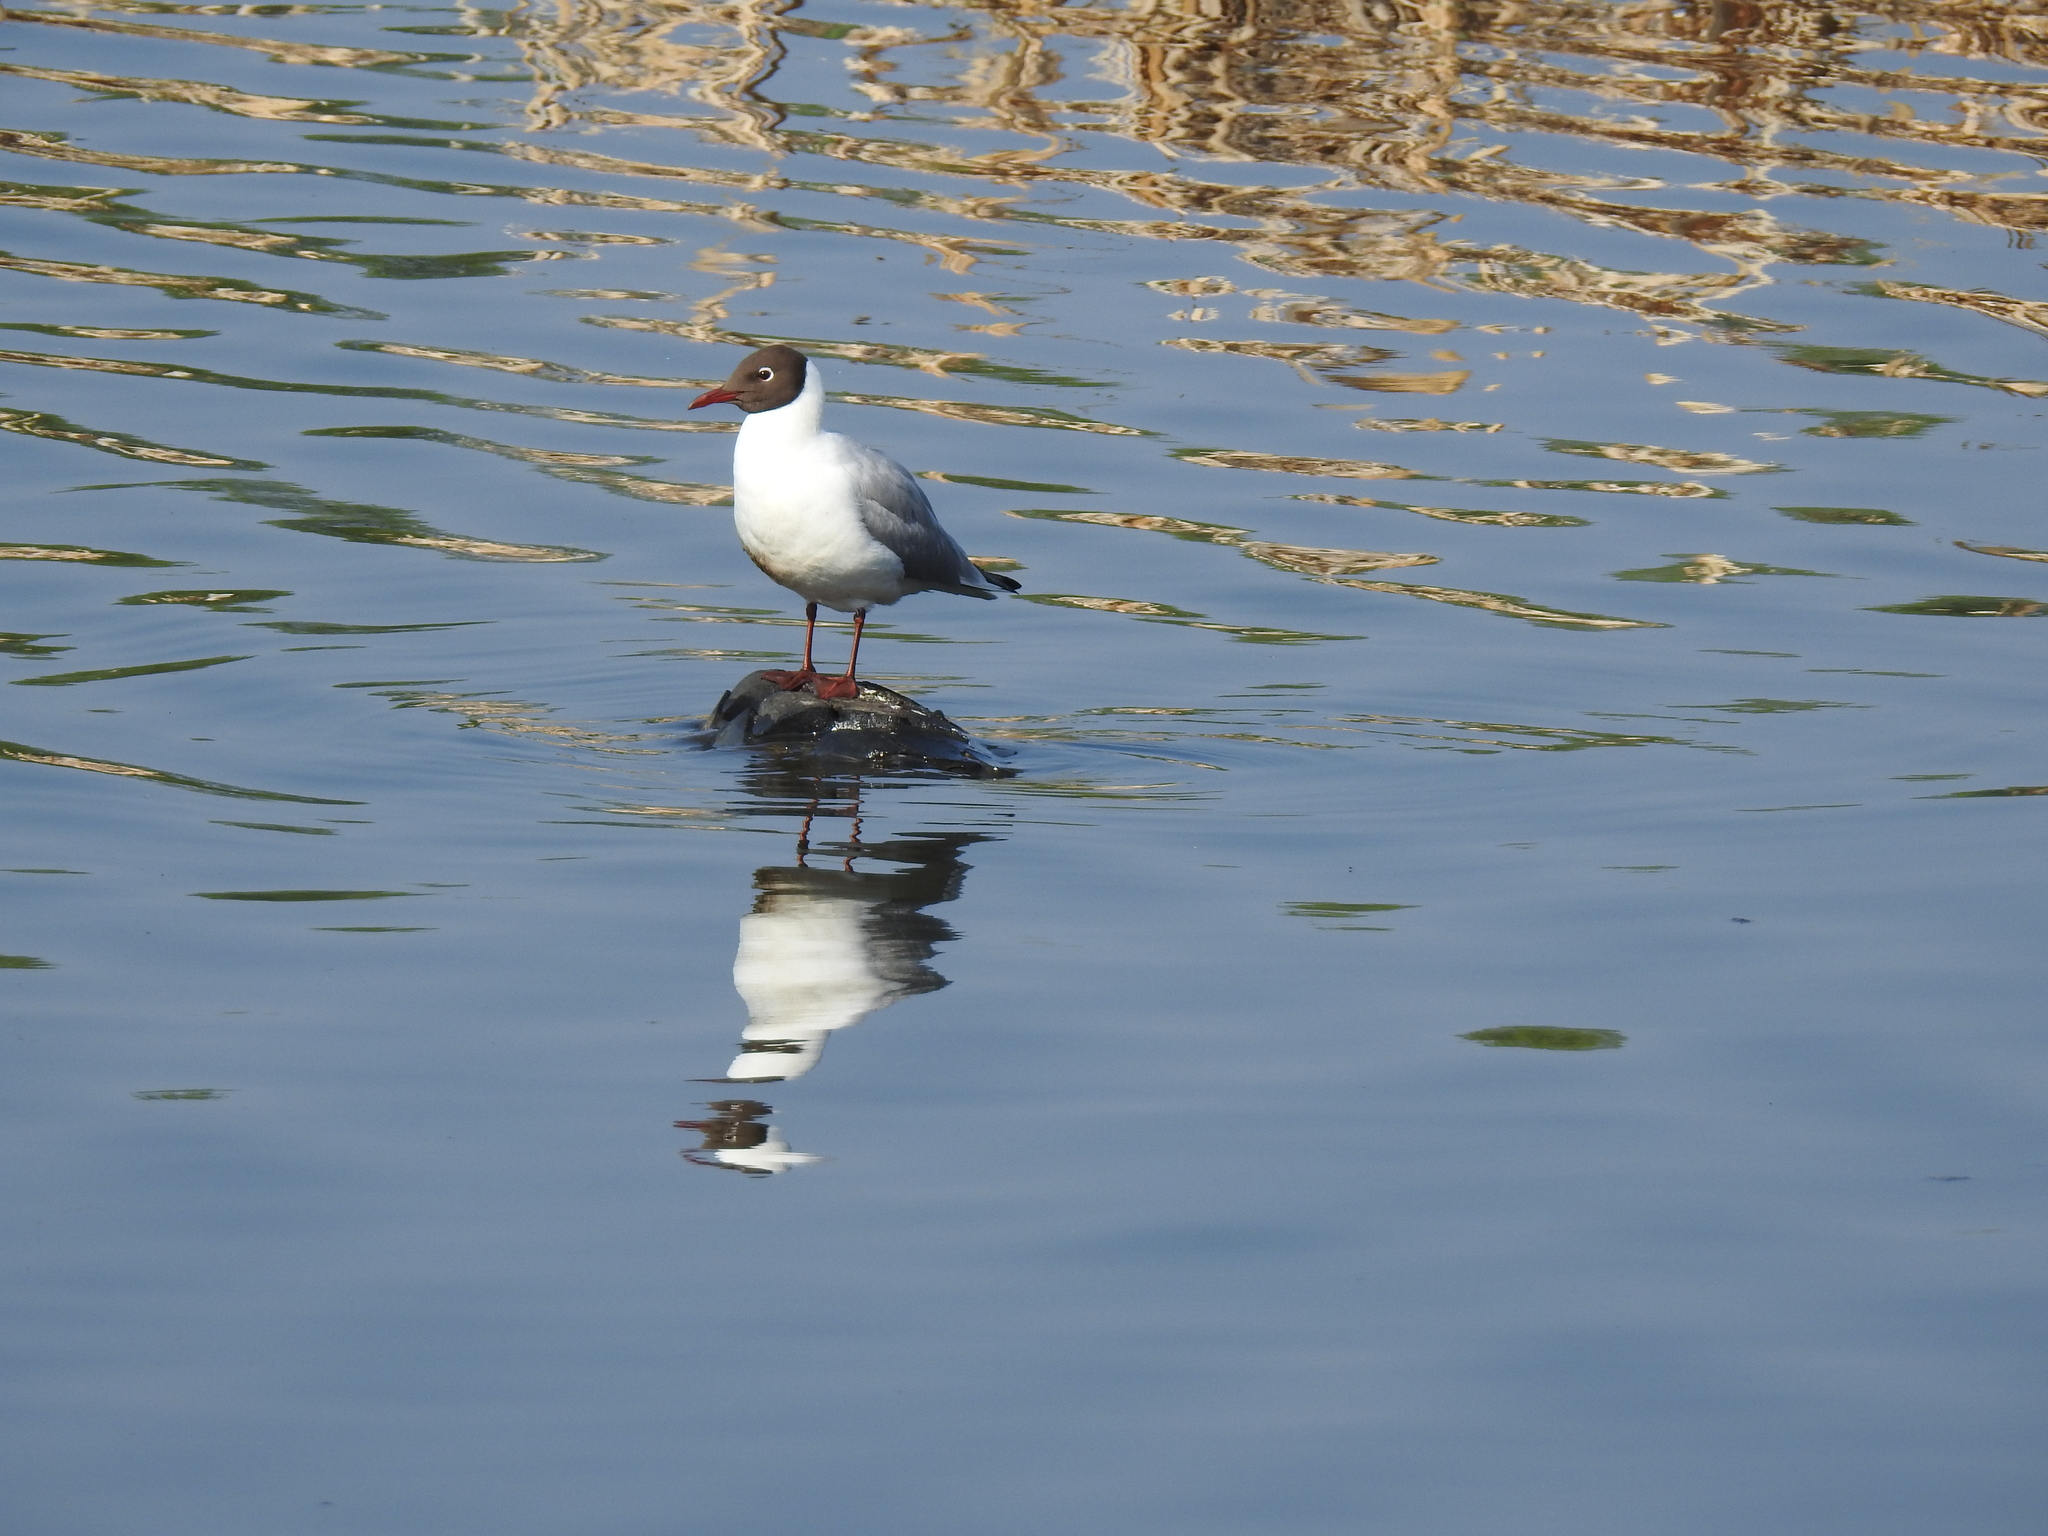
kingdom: Animalia
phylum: Chordata
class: Aves
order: Charadriiformes
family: Laridae
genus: Chroicocephalus
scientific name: Chroicocephalus ridibundus
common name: Black-headed gull
